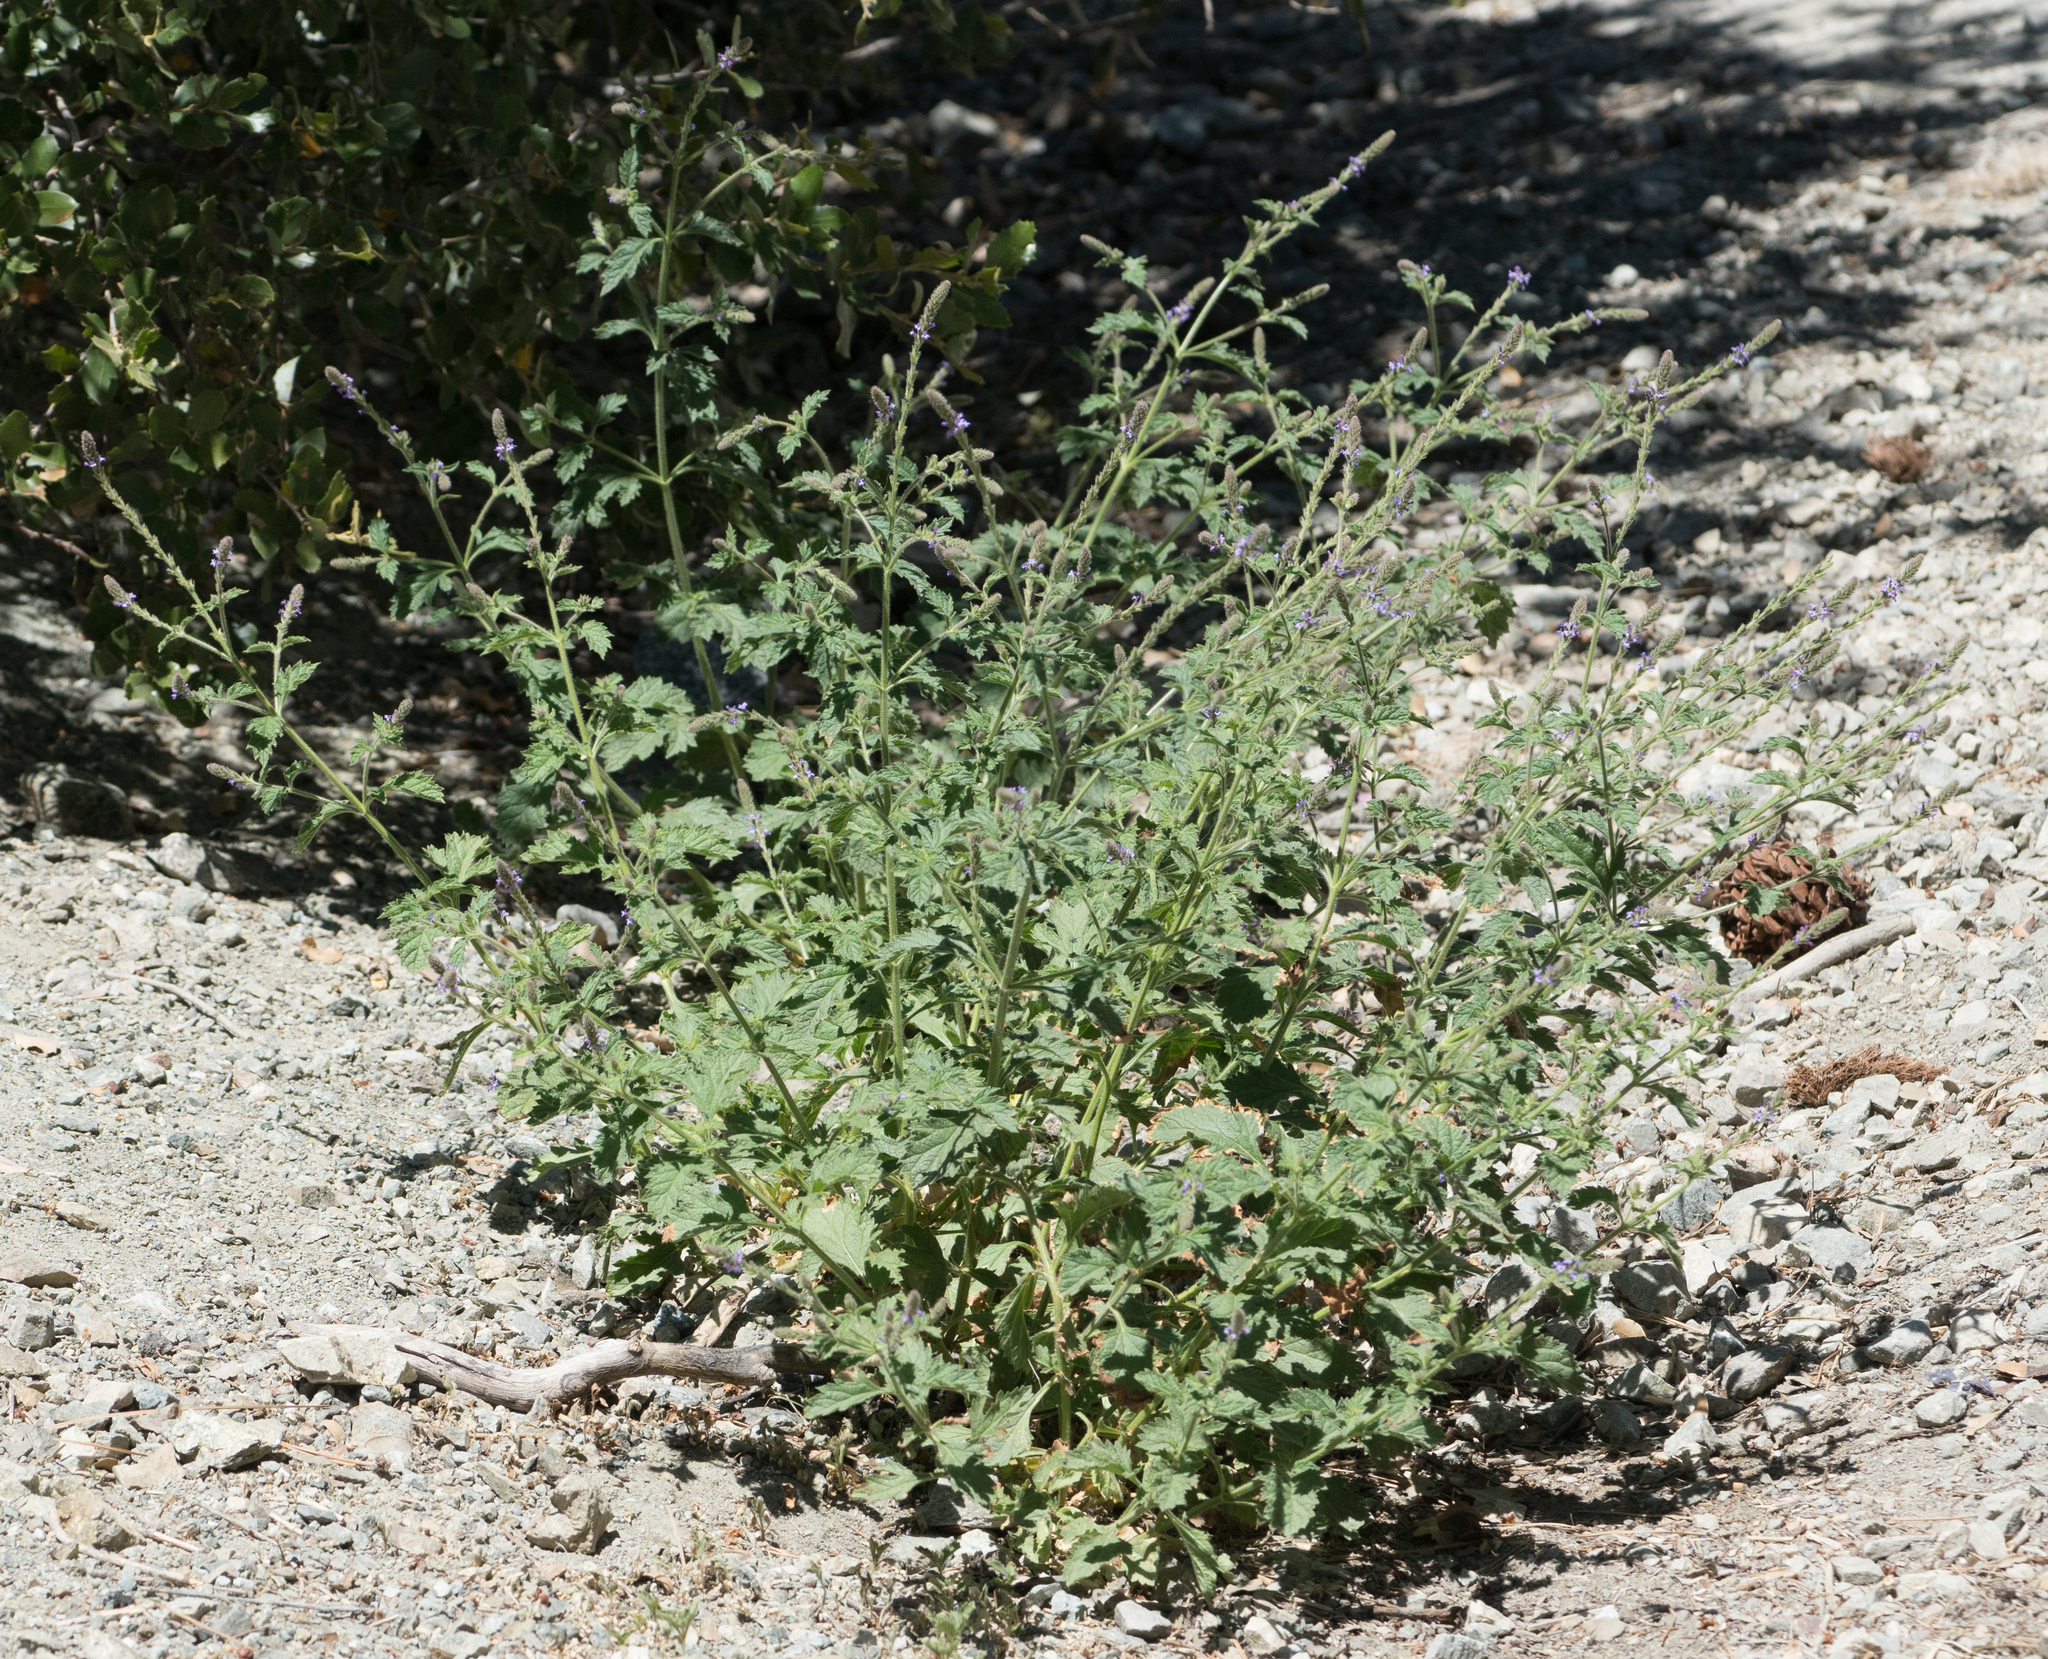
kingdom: Plantae
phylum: Tracheophyta
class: Magnoliopsida
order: Lamiales
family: Verbenaceae
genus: Verbena
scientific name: Verbena lasiostachys
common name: Vervain
